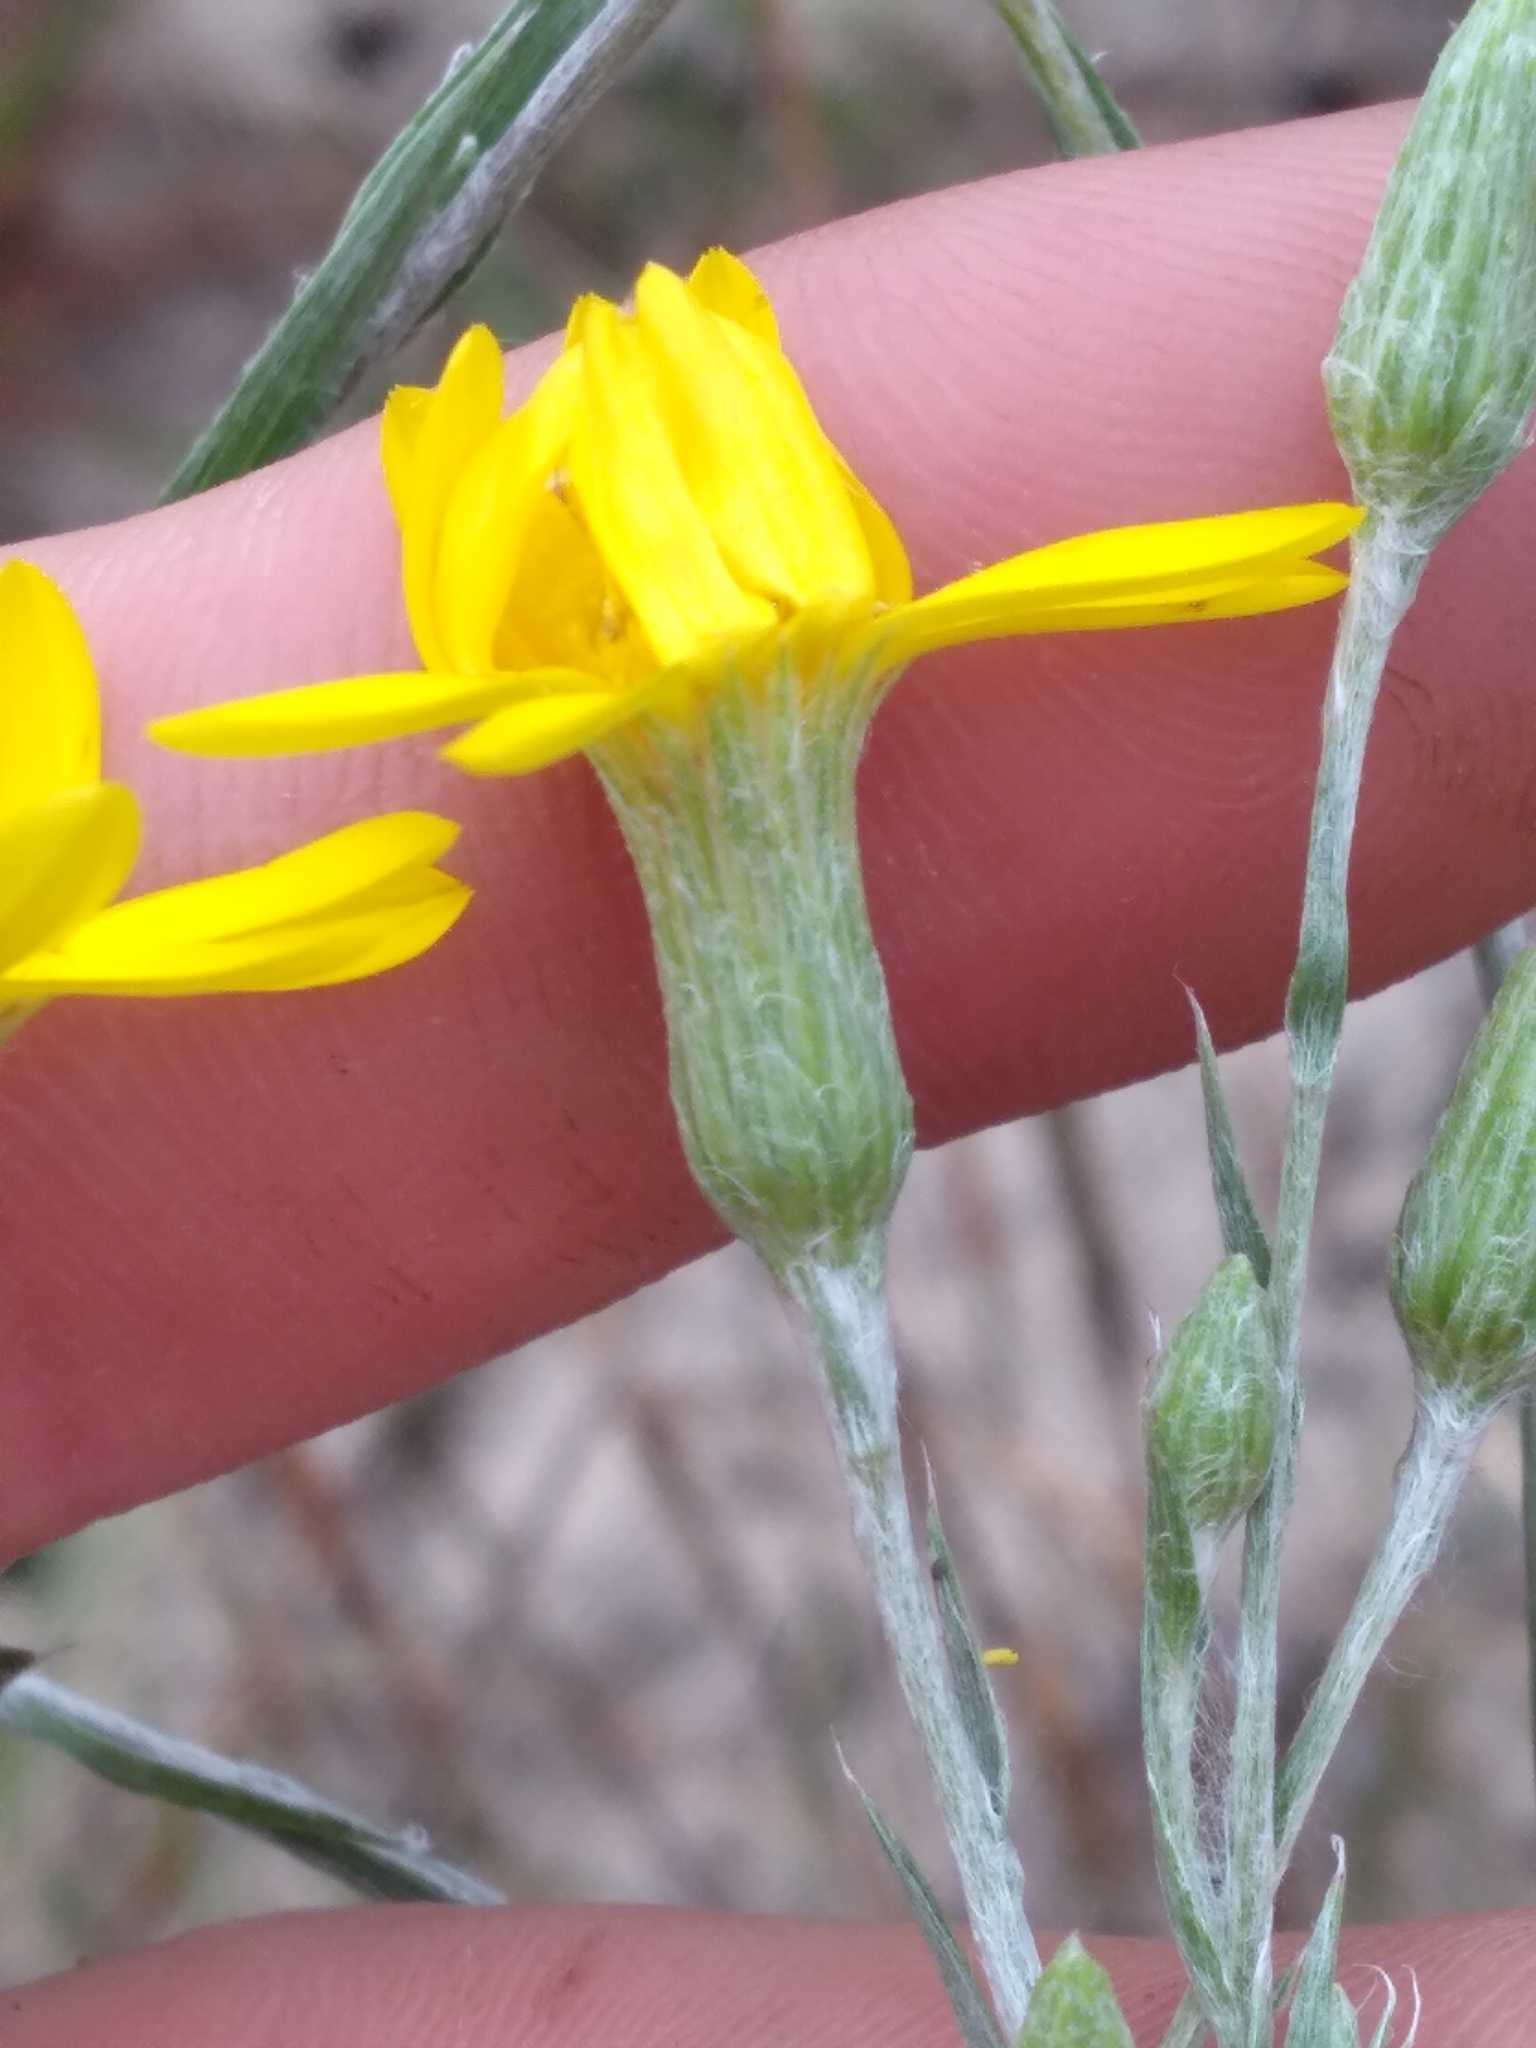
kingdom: Plantae
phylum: Tracheophyta
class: Magnoliopsida
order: Asterales
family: Asteraceae
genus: Pityopsis
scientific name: Pityopsis aequilifolia
